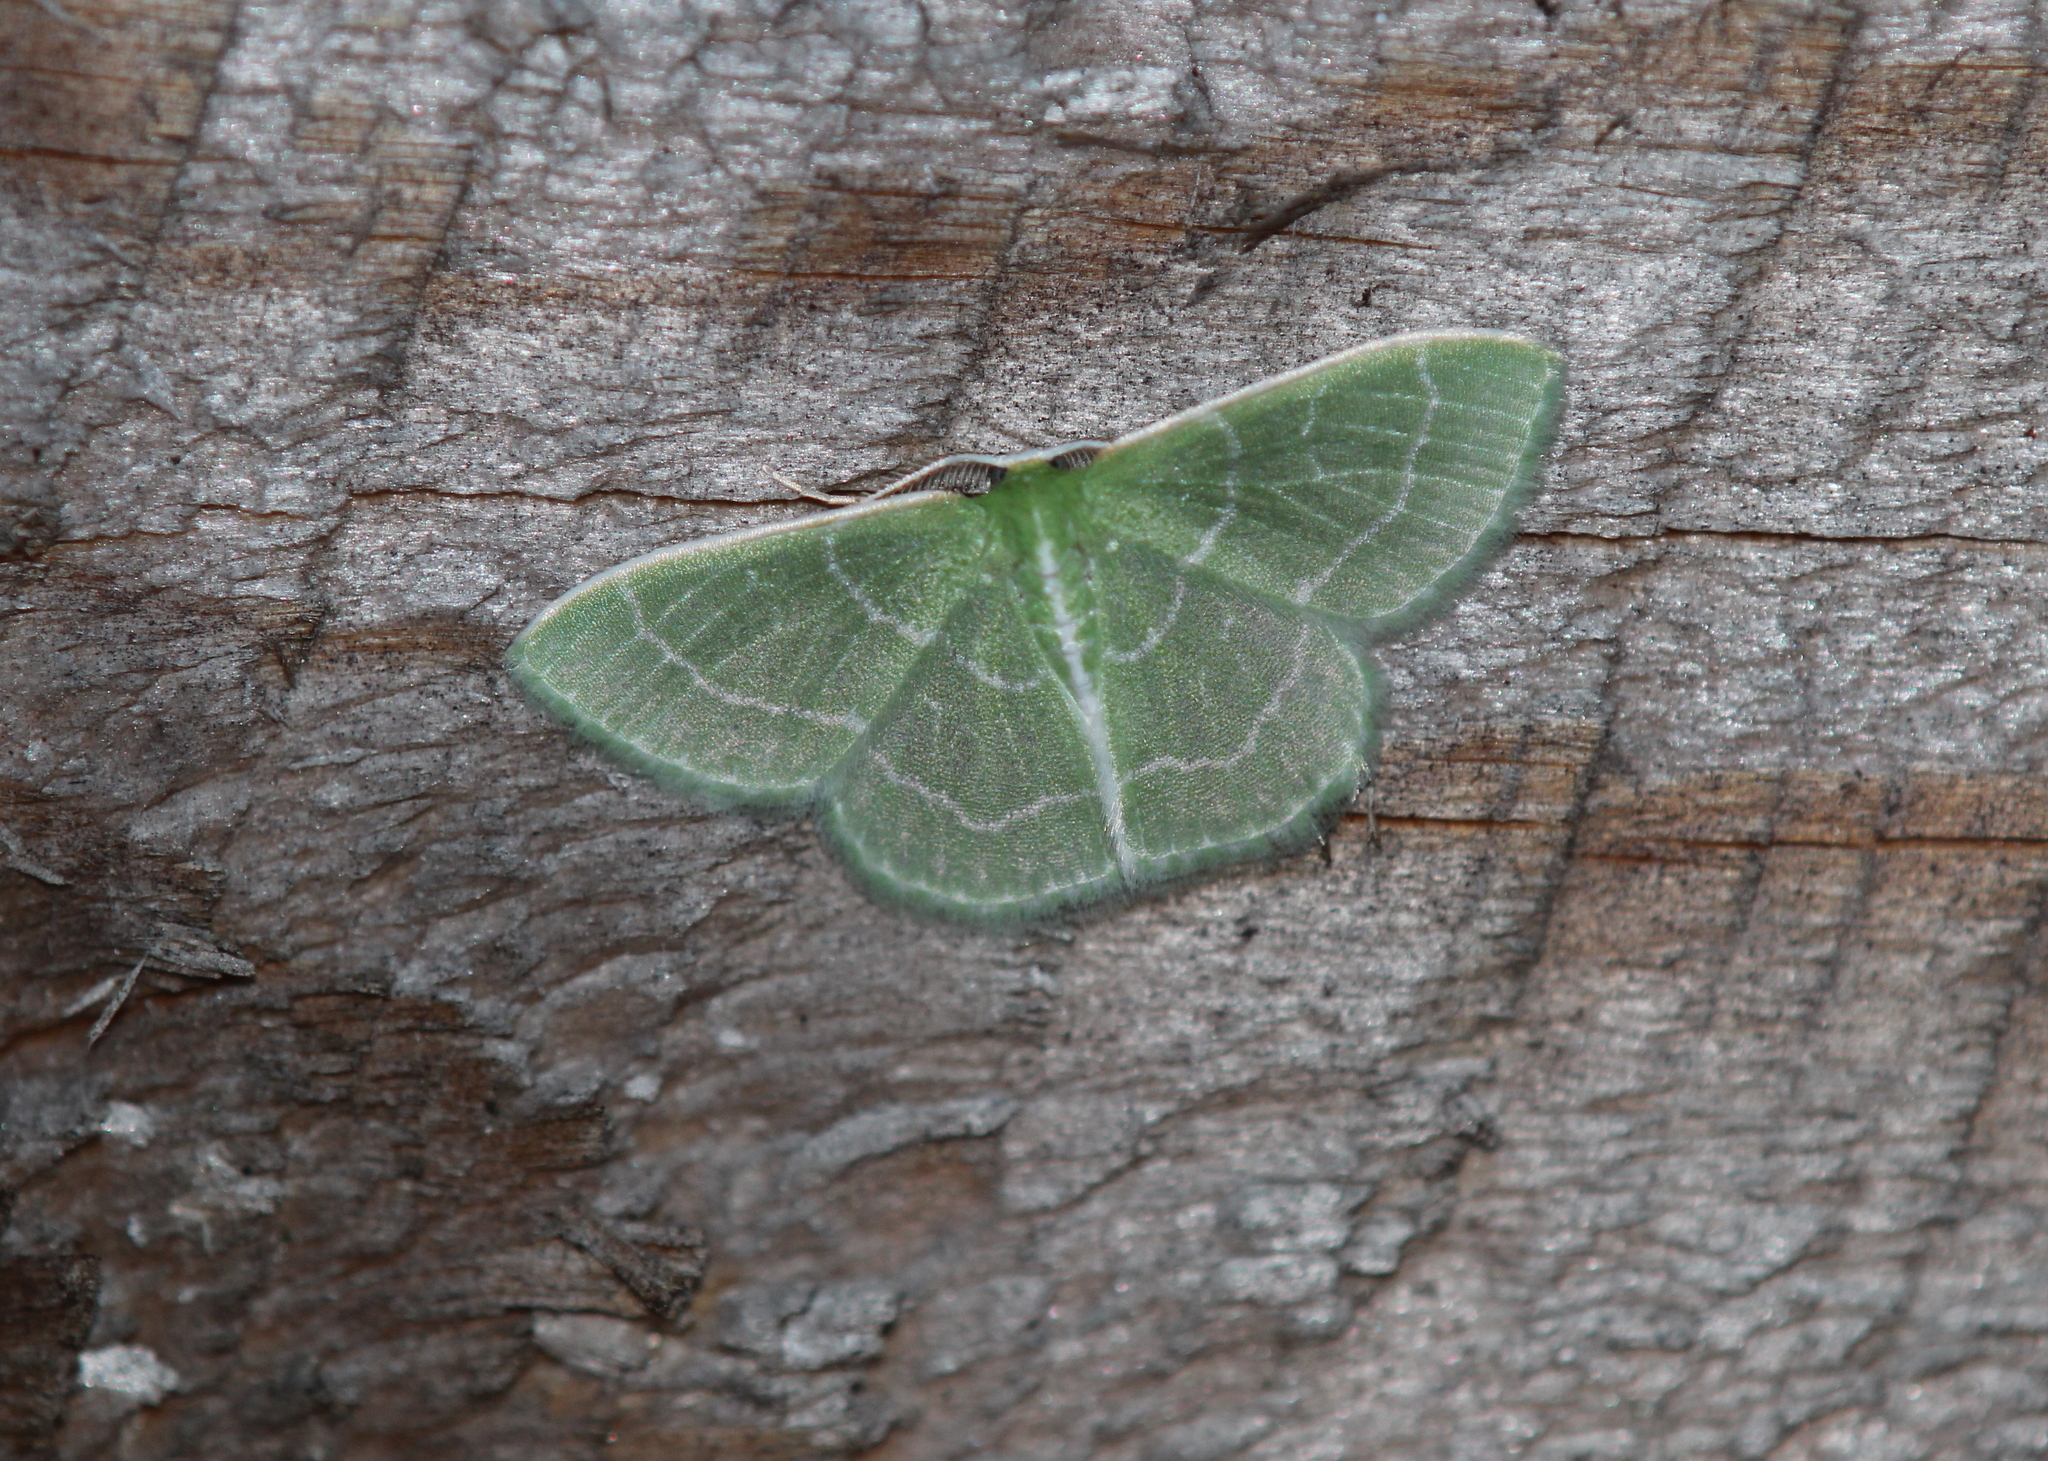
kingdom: Animalia
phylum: Arthropoda
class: Insecta
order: Lepidoptera
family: Geometridae
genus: Synchlora
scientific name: Synchlora aerata
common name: Wavy-lined emerald
